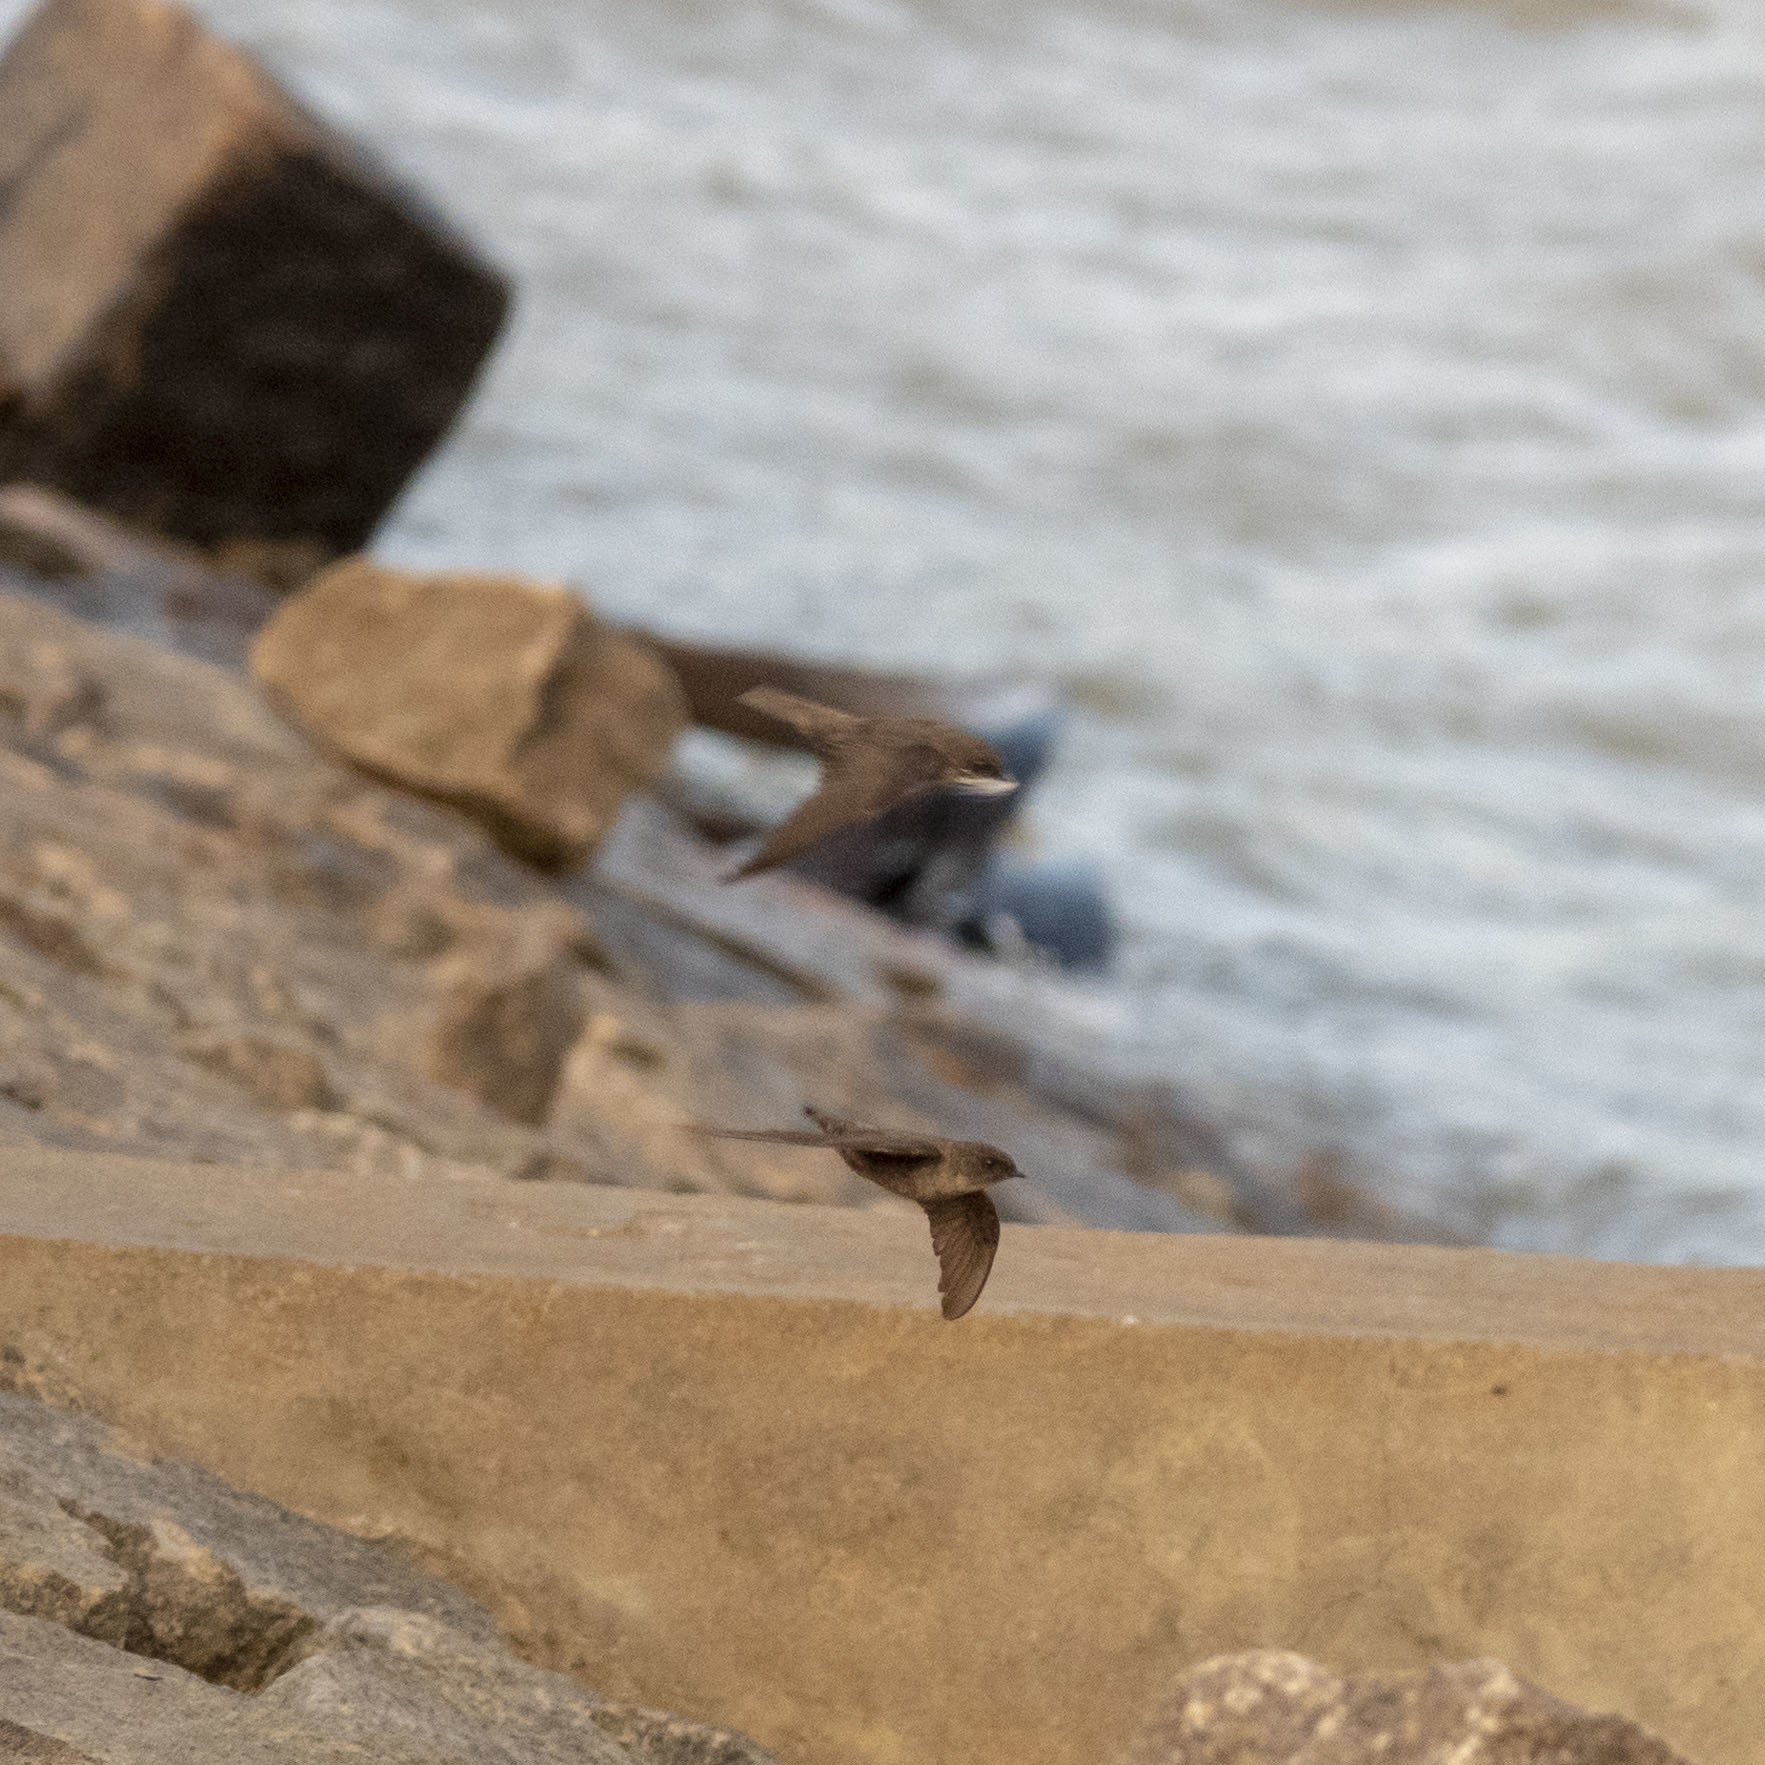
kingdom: Animalia
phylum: Chordata
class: Aves
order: Passeriformes
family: Hirundinidae
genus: Ptyonoprogne
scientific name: Ptyonoprogne concolor
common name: Dusky crag-martin
